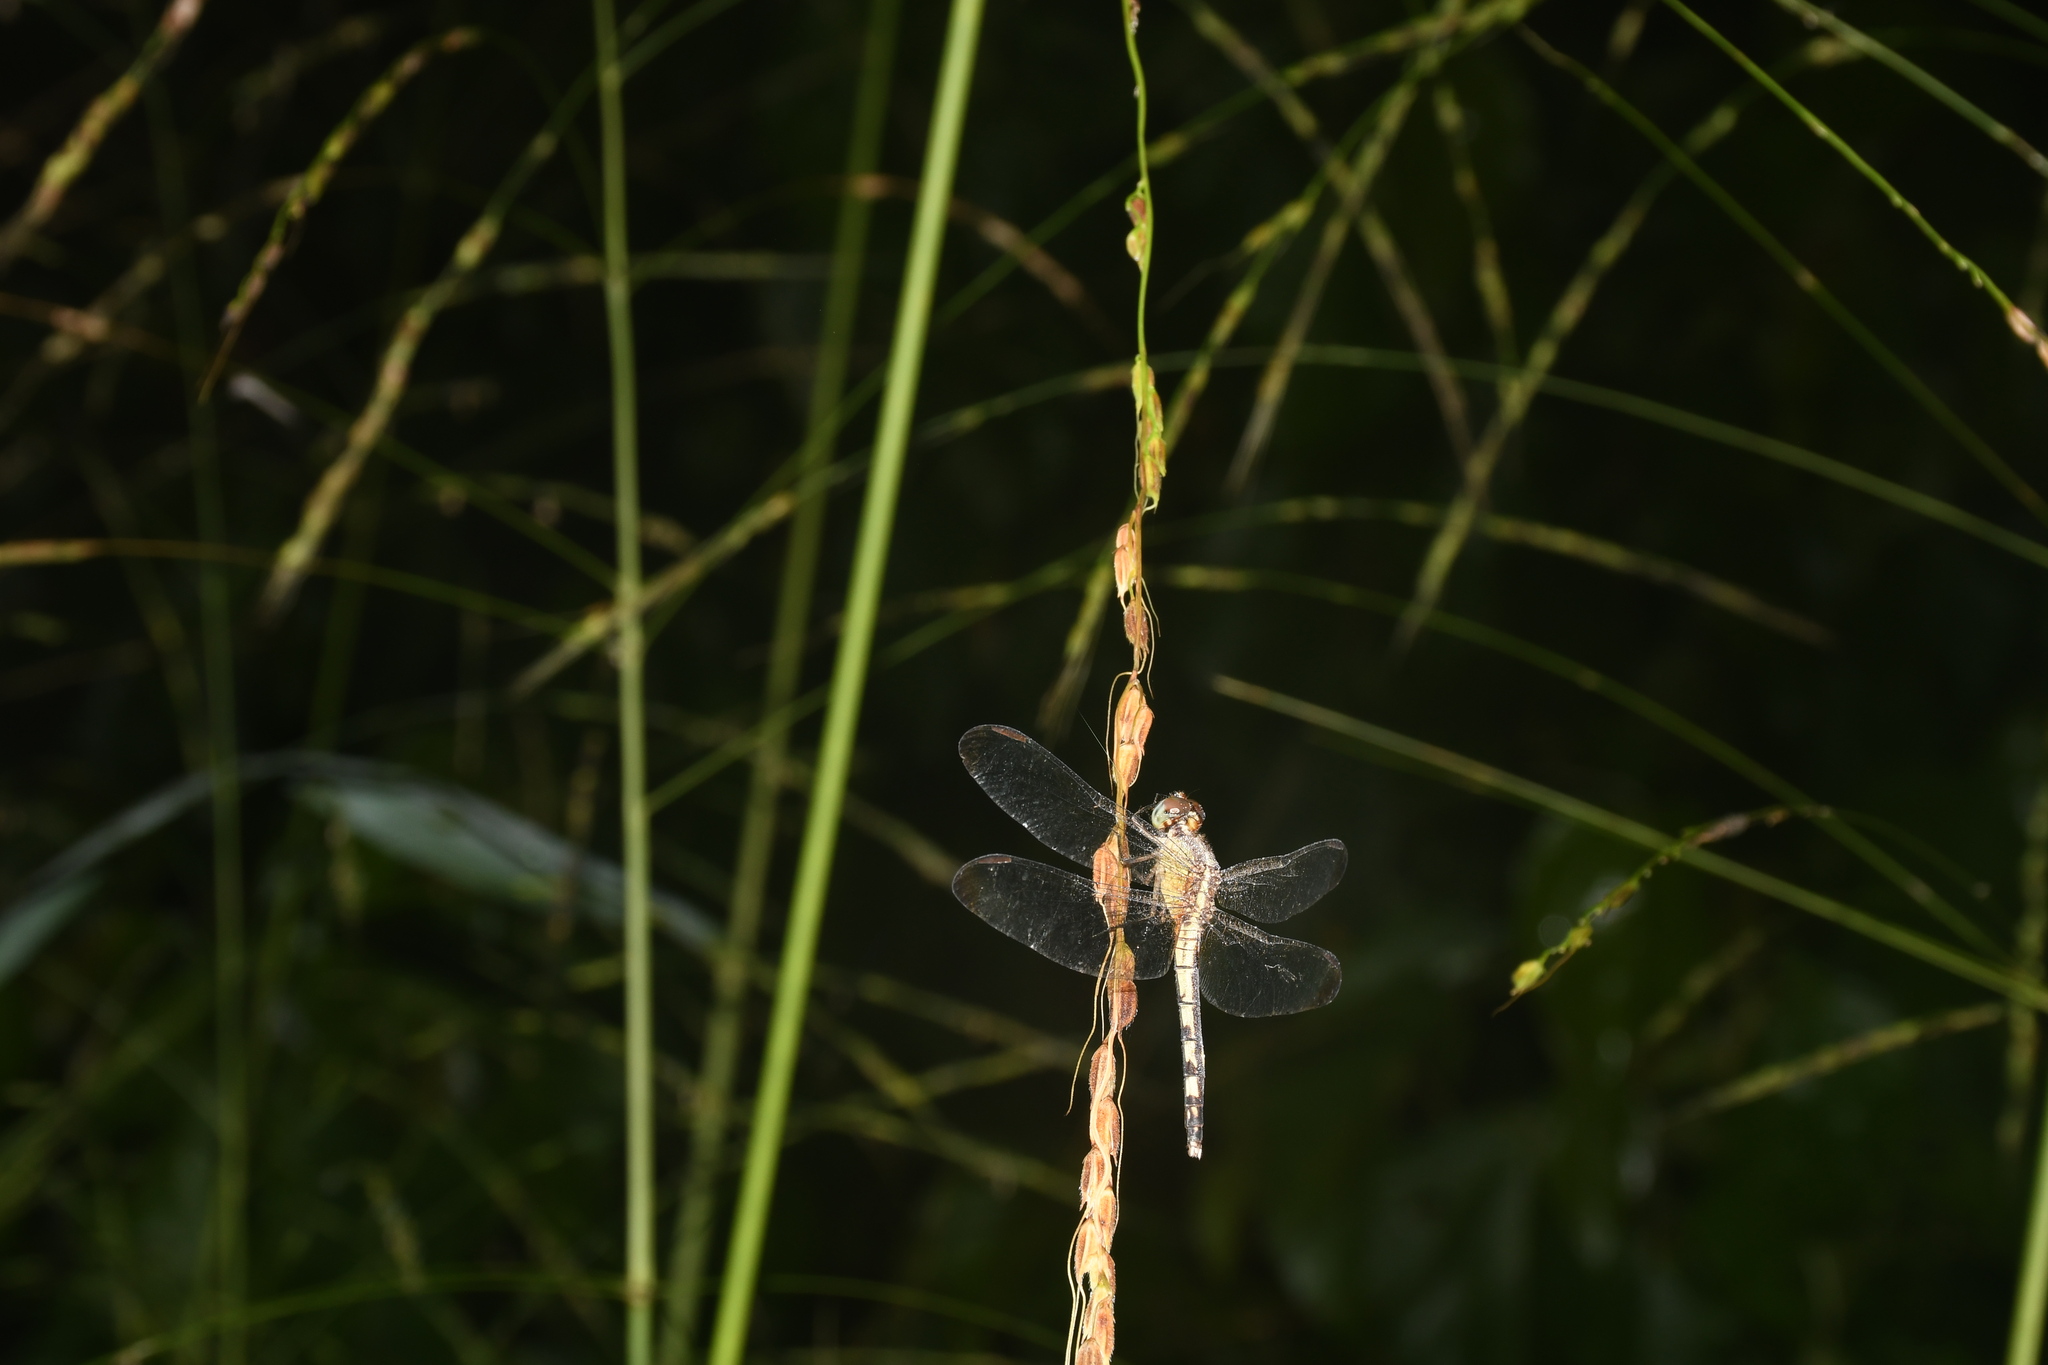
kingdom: Animalia
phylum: Arthropoda
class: Insecta
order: Odonata
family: Libellulidae
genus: Erythrodiplax
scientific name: Erythrodiplax umbrata
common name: Band-winged dragonlet
